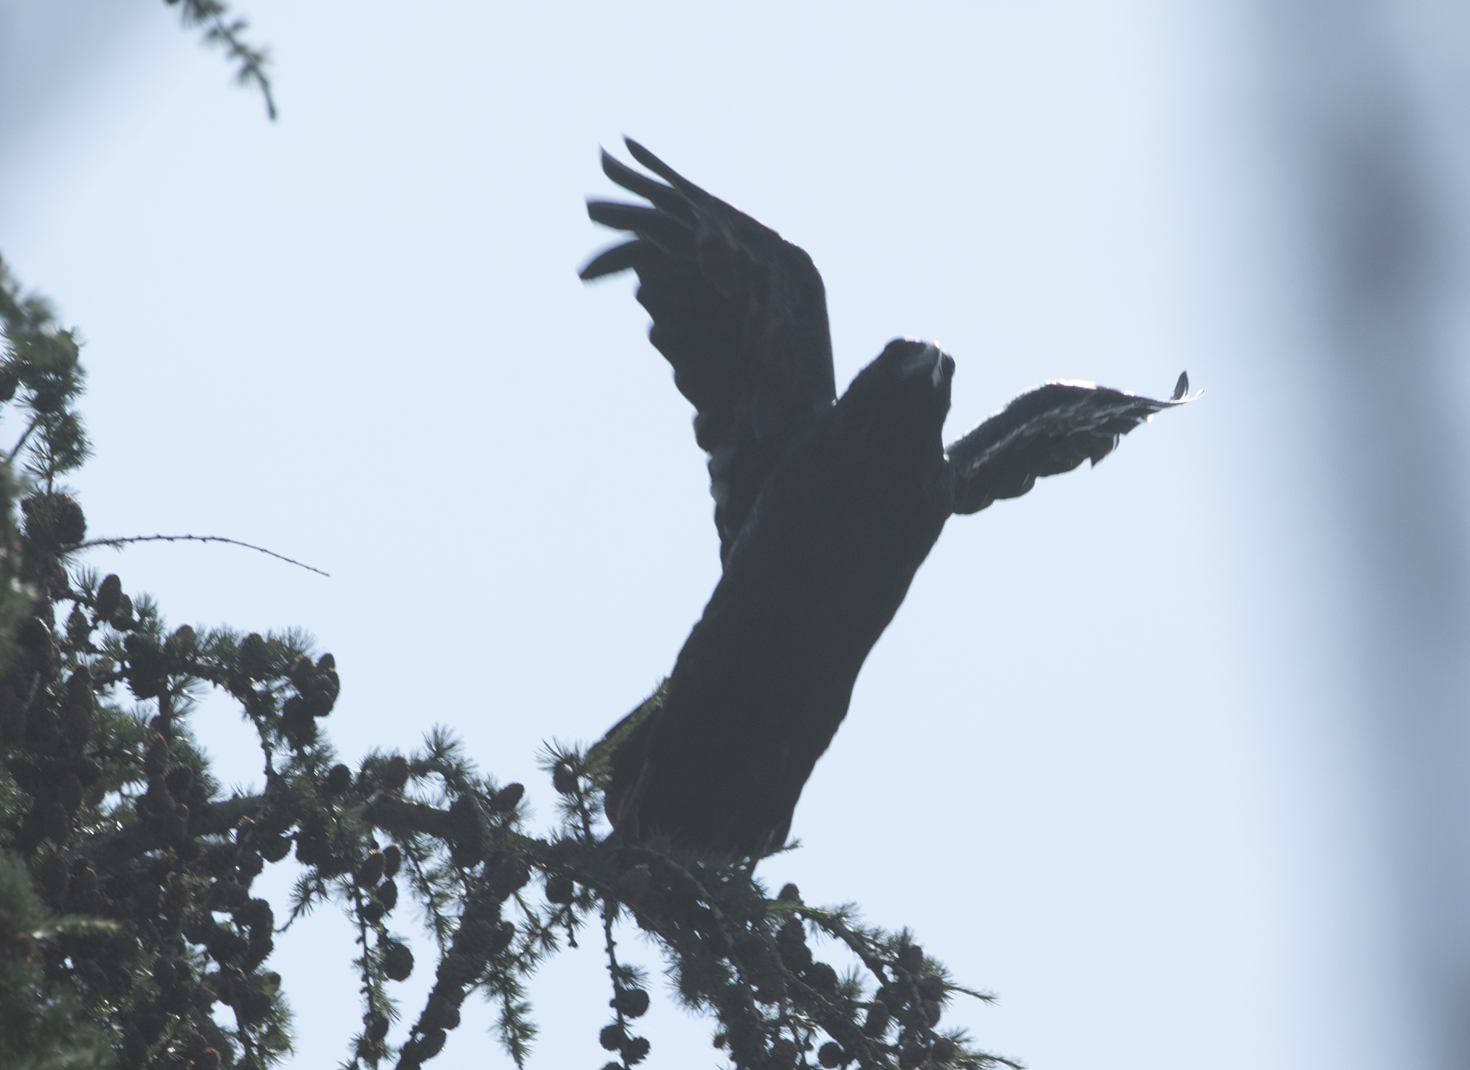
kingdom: Animalia
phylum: Chordata
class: Aves
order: Passeriformes
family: Corvidae
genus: Corvus
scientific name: Corvus corax
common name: Common raven
